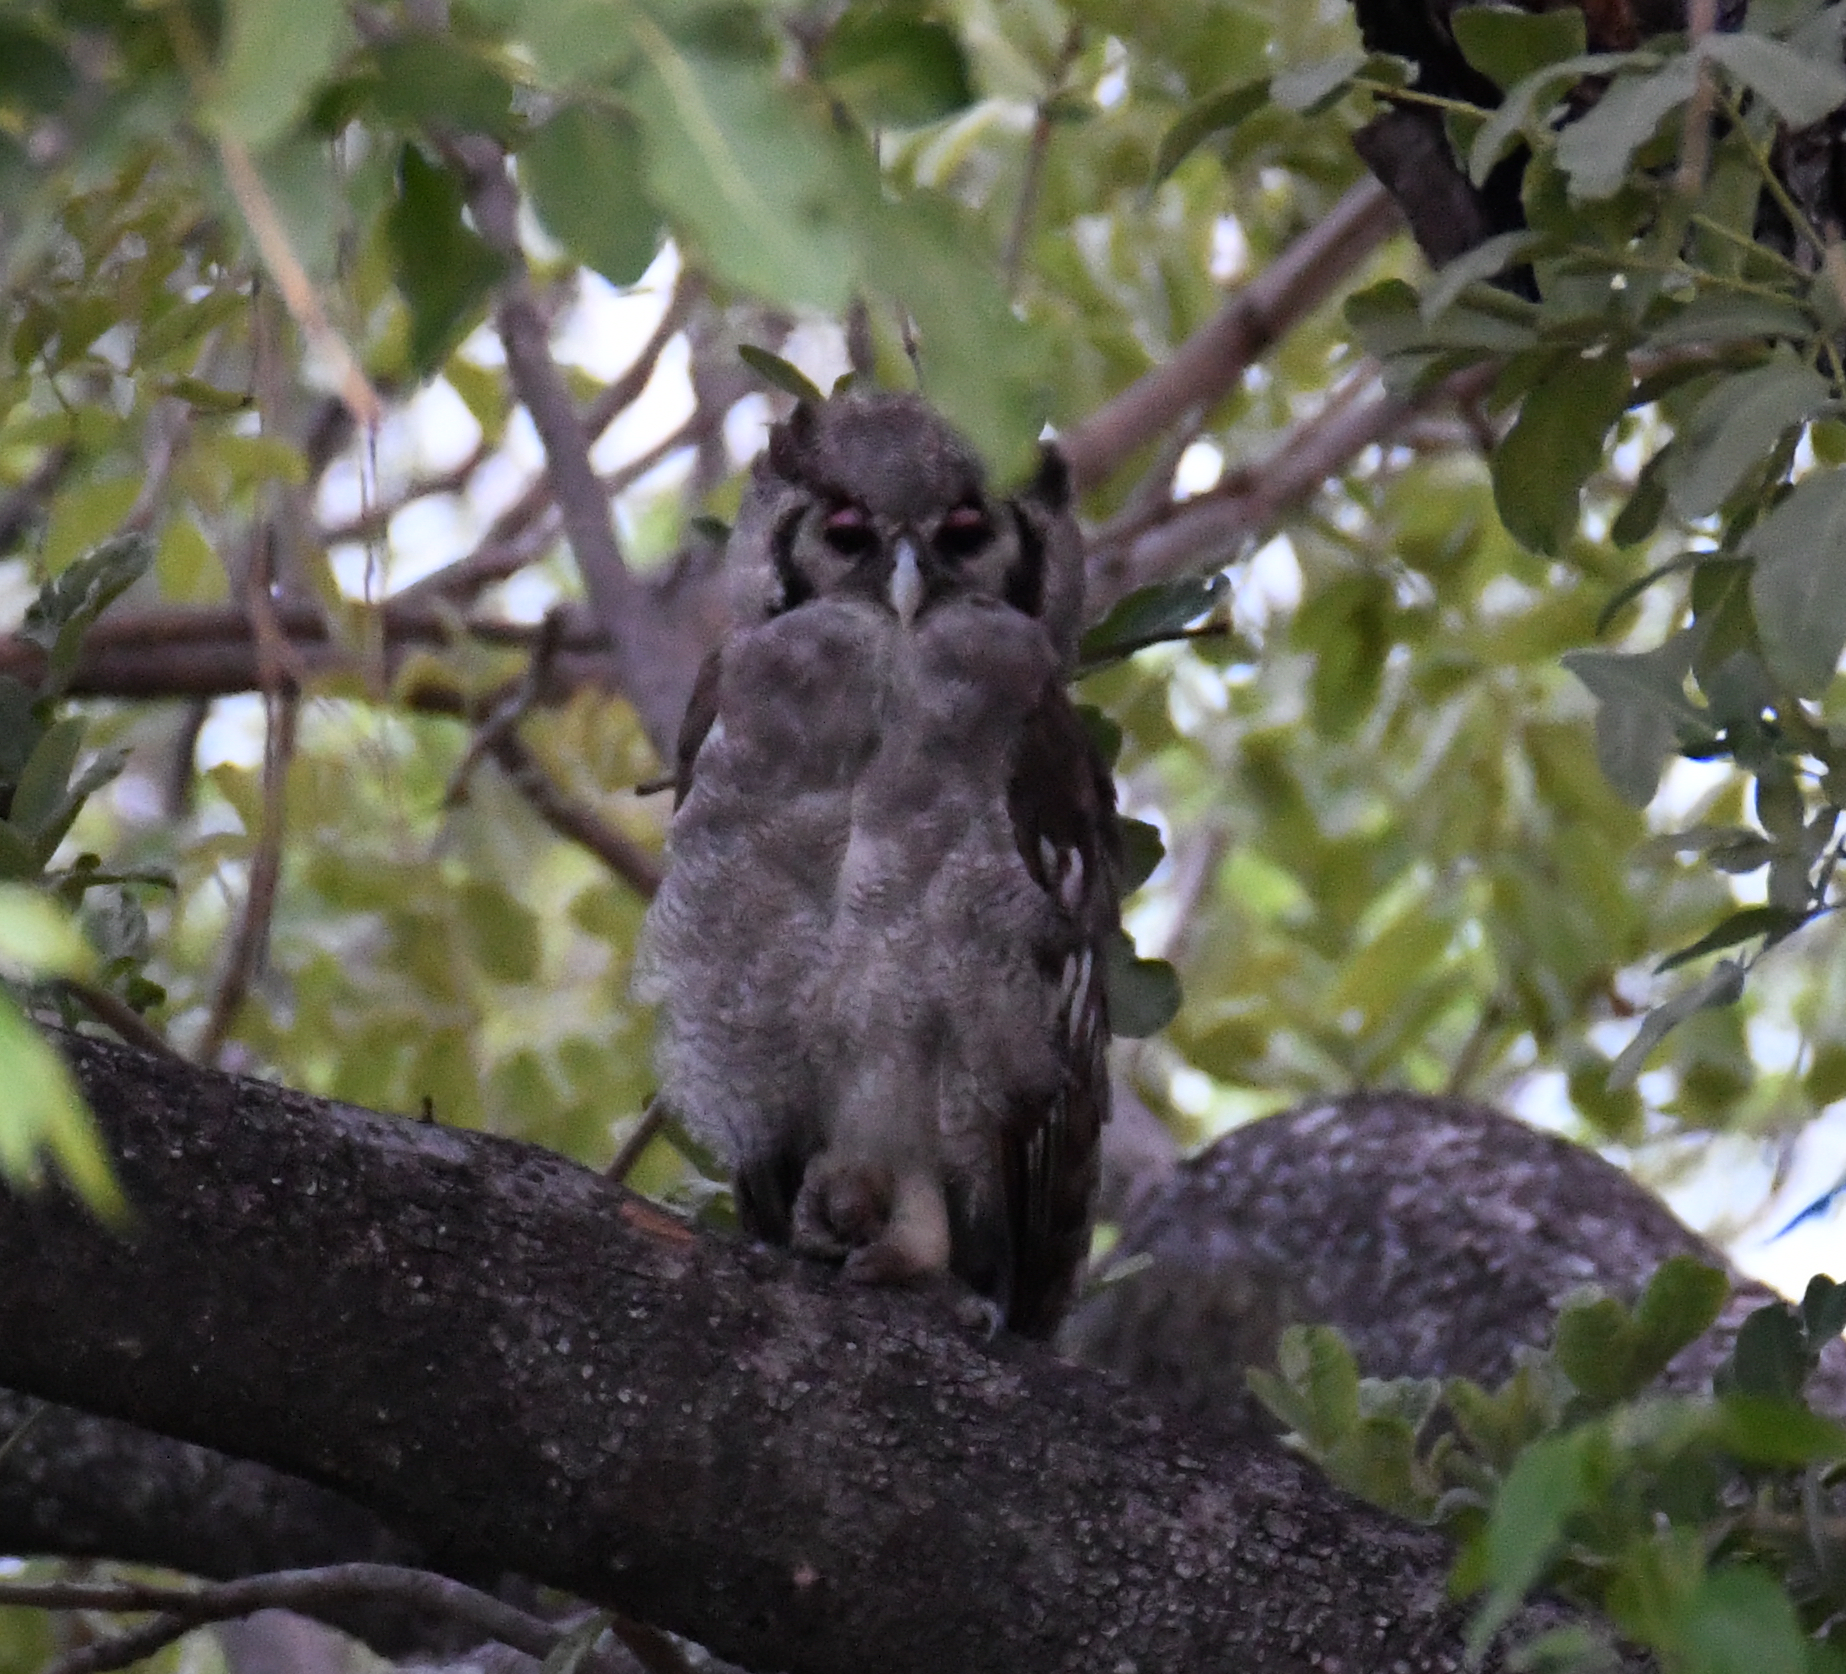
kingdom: Animalia
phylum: Chordata
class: Aves
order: Strigiformes
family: Strigidae
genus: Bubo
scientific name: Bubo lacteus
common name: Verreaux's eagle-owl
